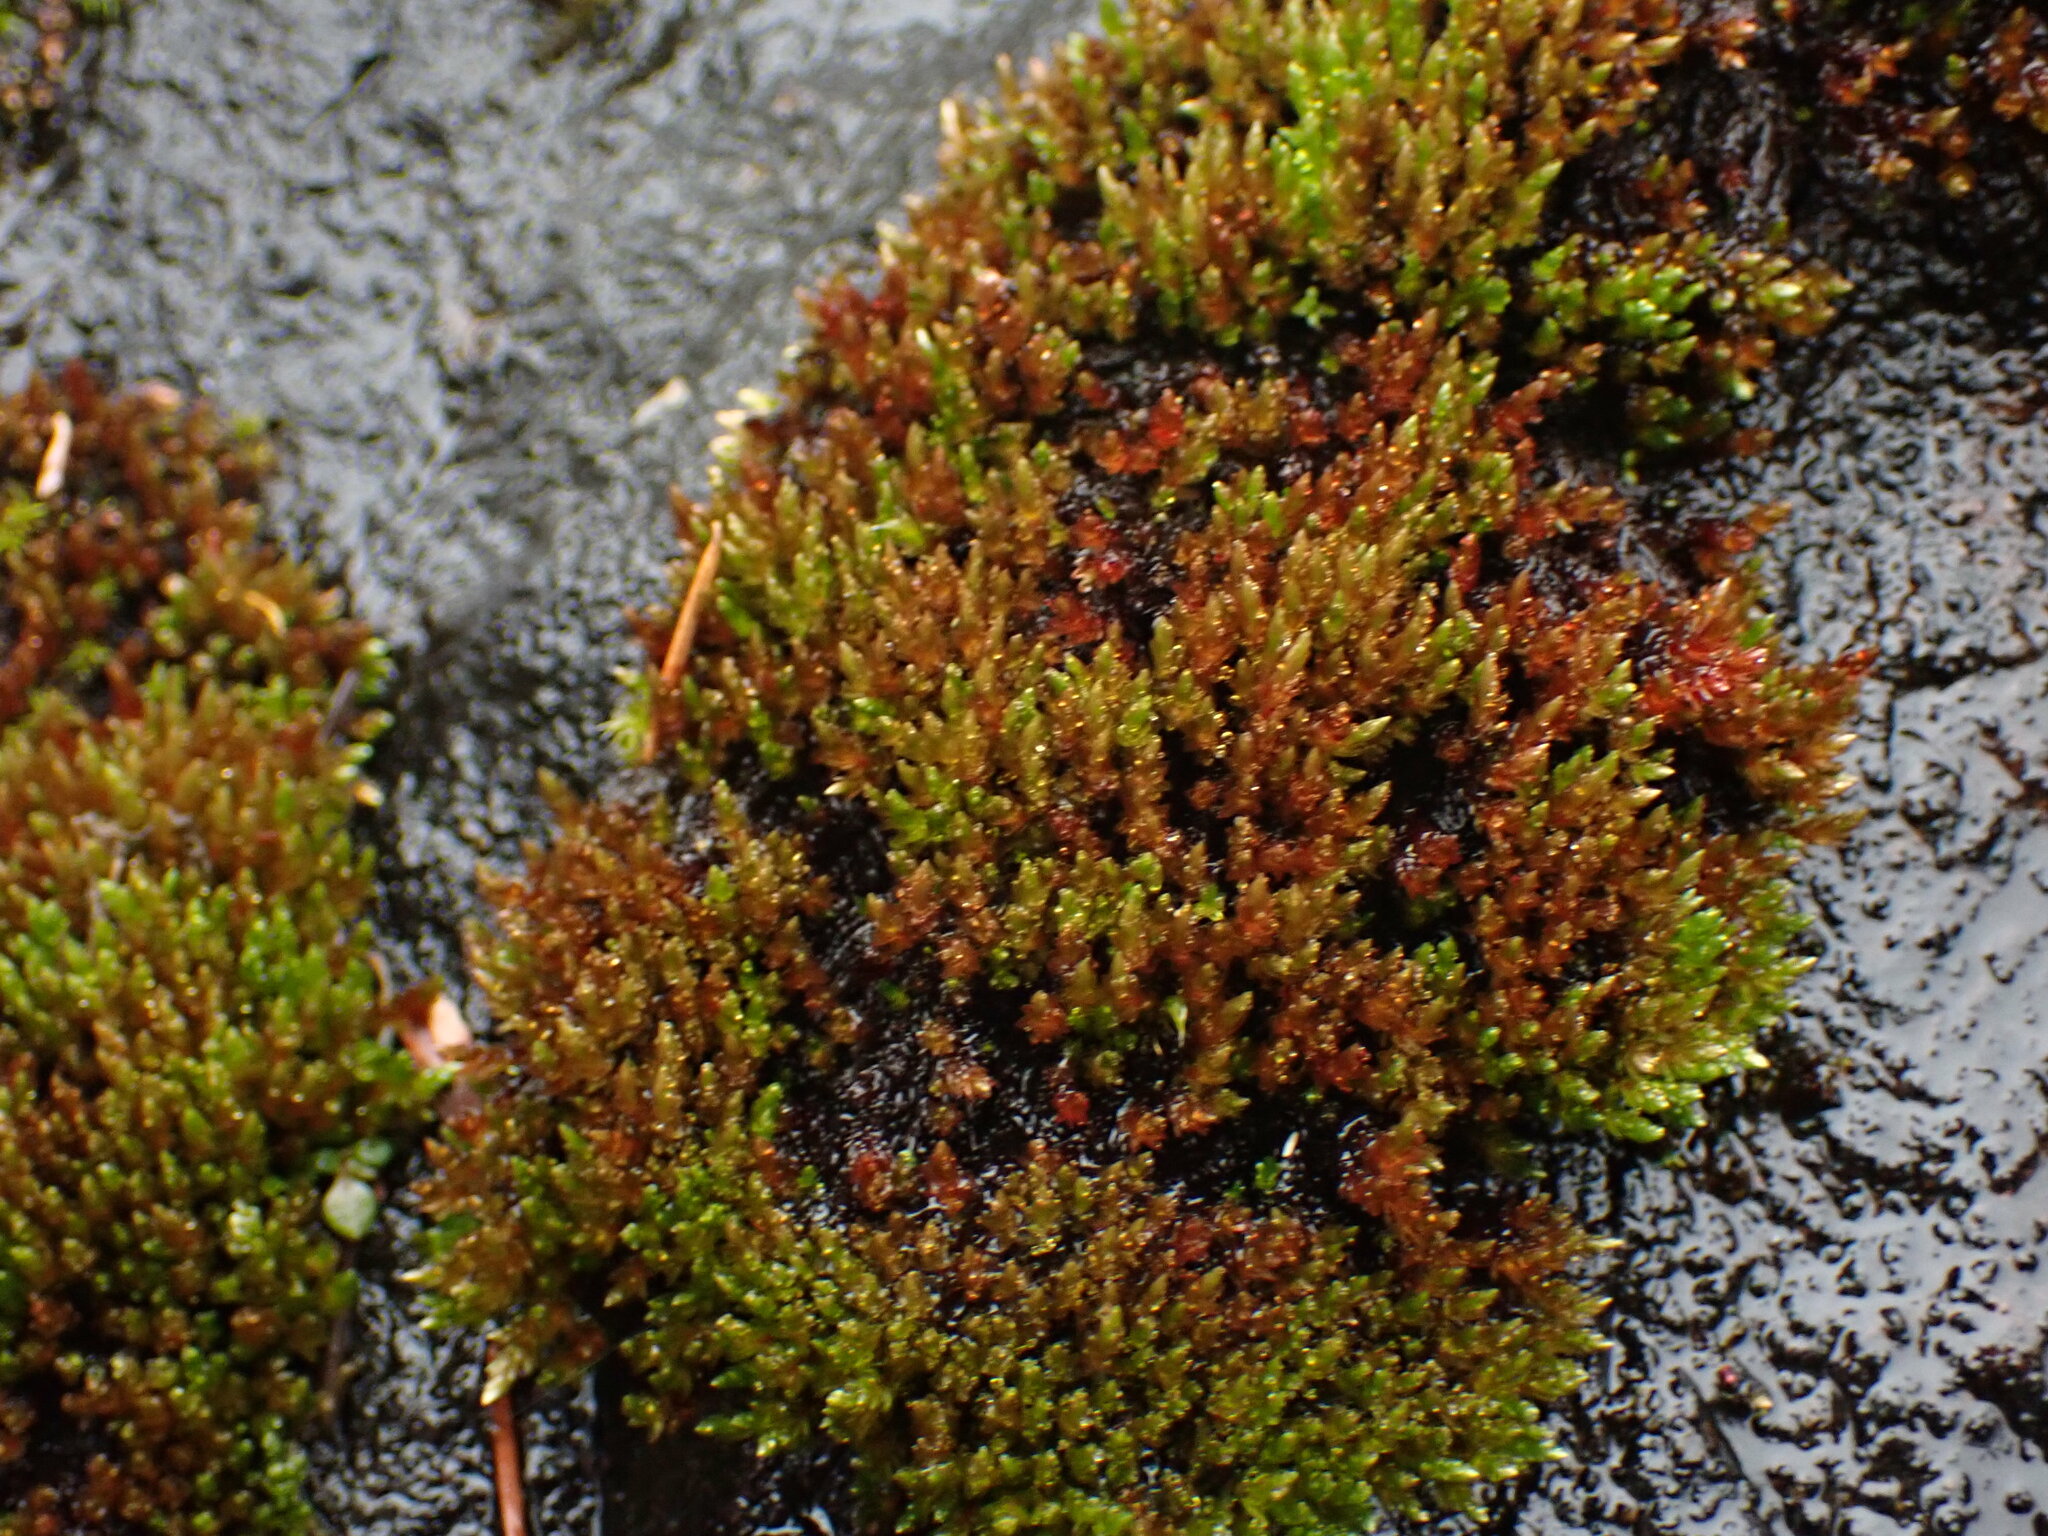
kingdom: Plantae
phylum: Bryophyta
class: Bryopsida
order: Bryales
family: Bryaceae
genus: Imbribryum
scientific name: Imbribryum miniatum
